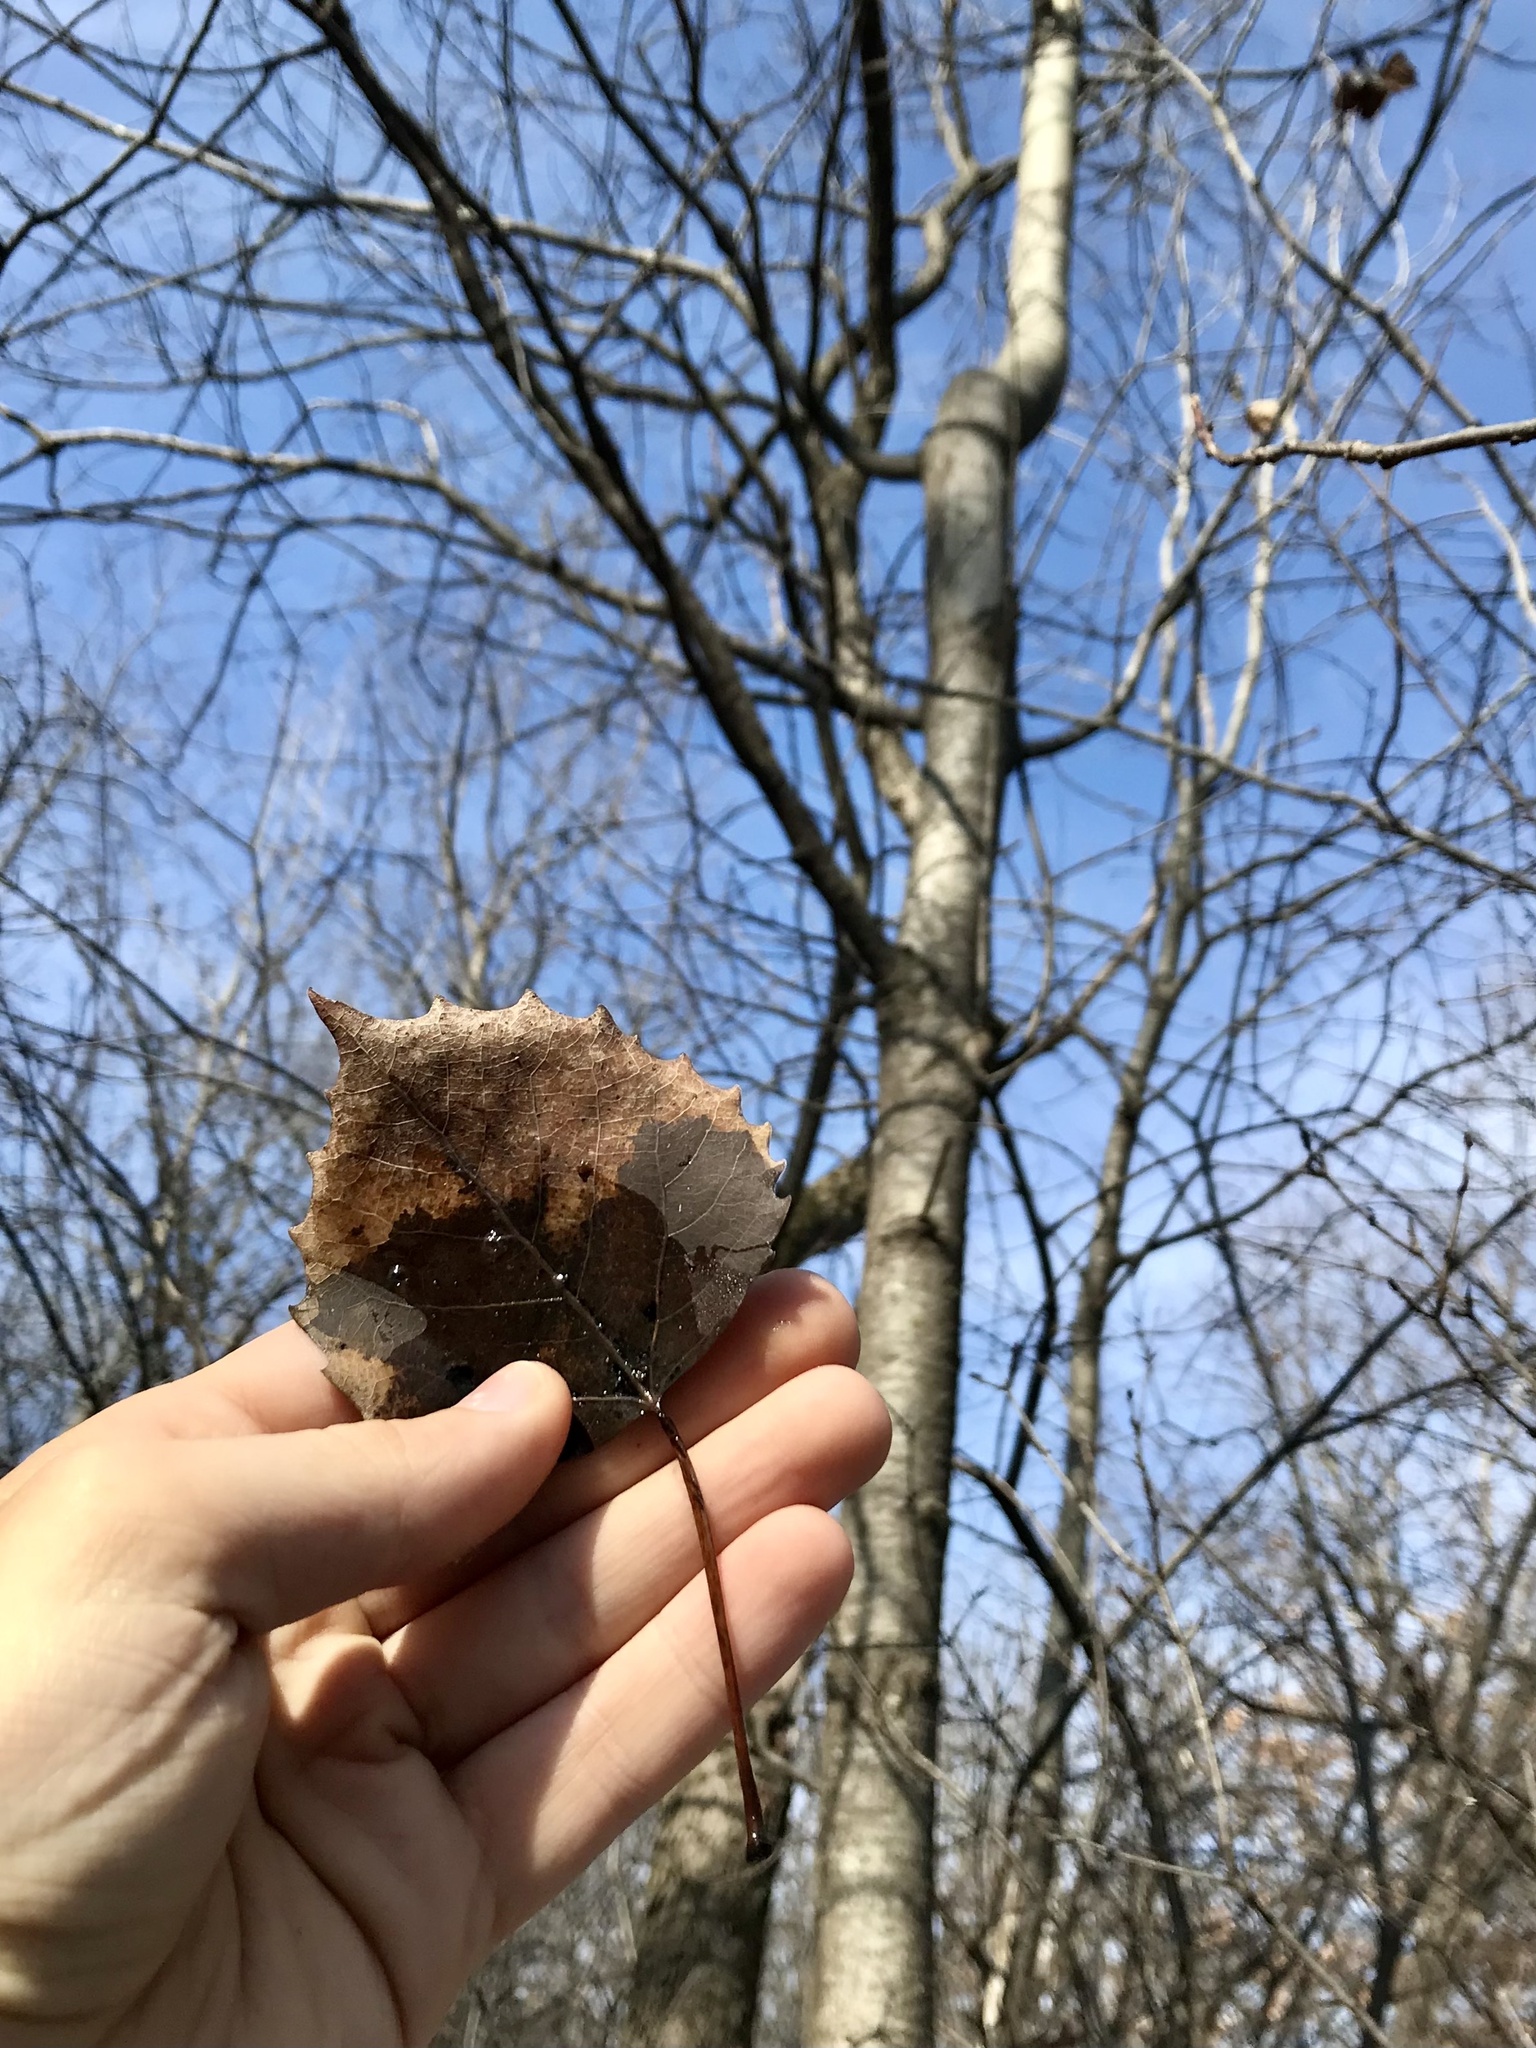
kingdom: Plantae
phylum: Tracheophyta
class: Magnoliopsida
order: Malpighiales
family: Salicaceae
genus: Populus
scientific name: Populus grandidentata
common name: Bigtooth aspen
